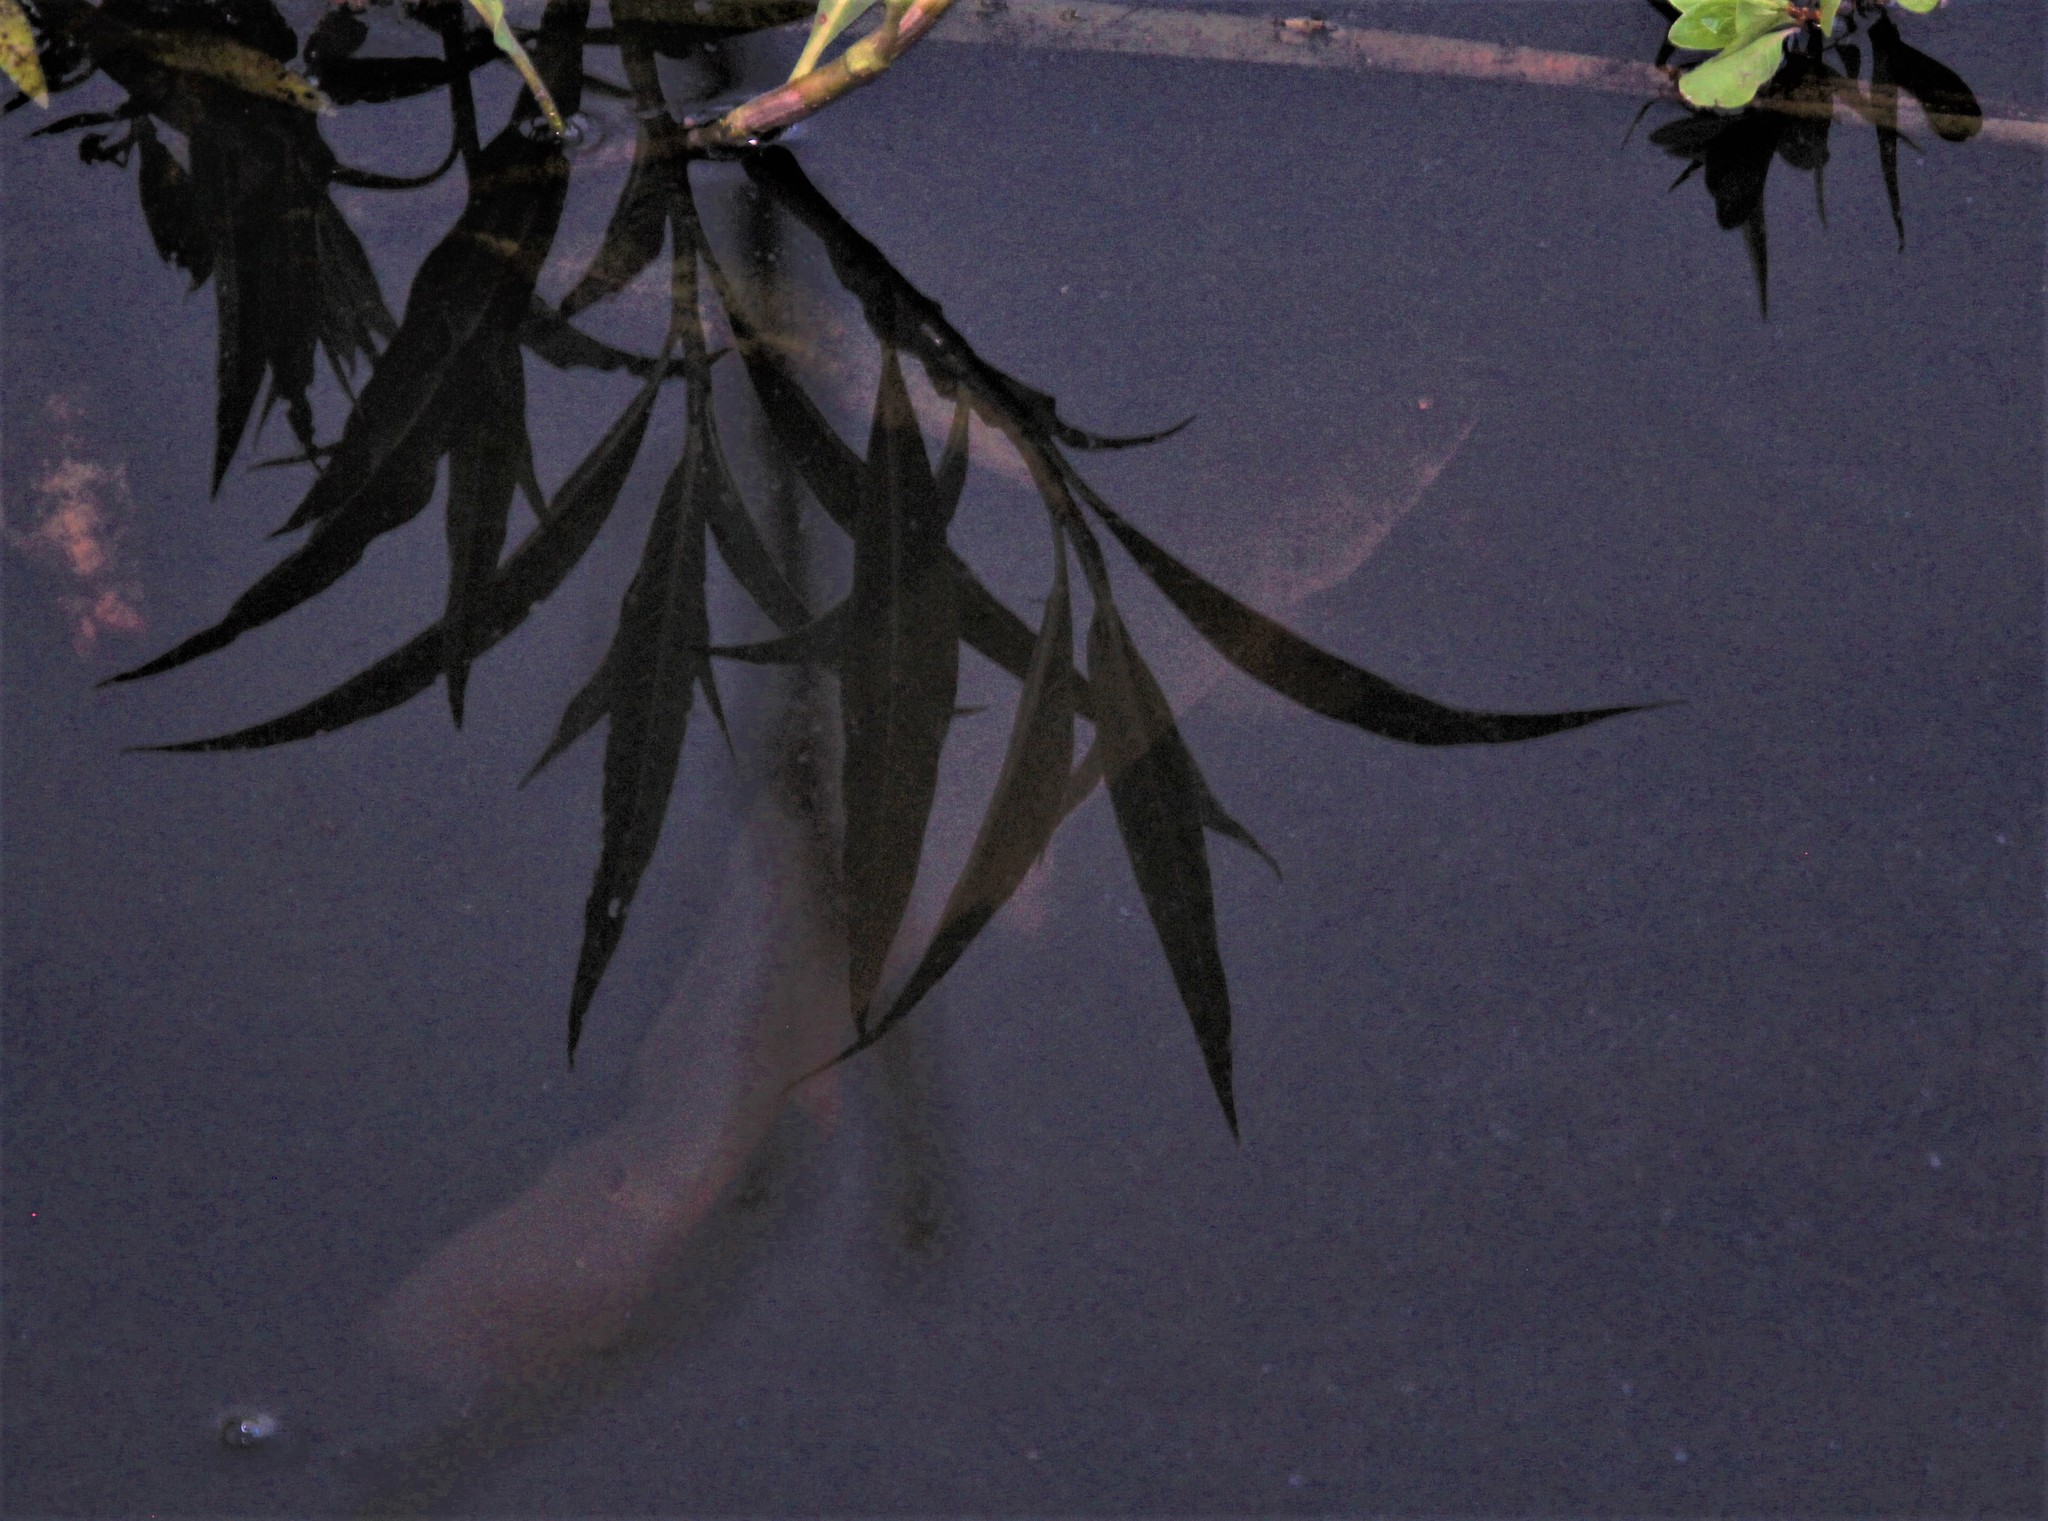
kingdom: Animalia
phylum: Chordata
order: Amiiformes
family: Amiidae
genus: Amia
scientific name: Amia calva
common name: Bowfin
